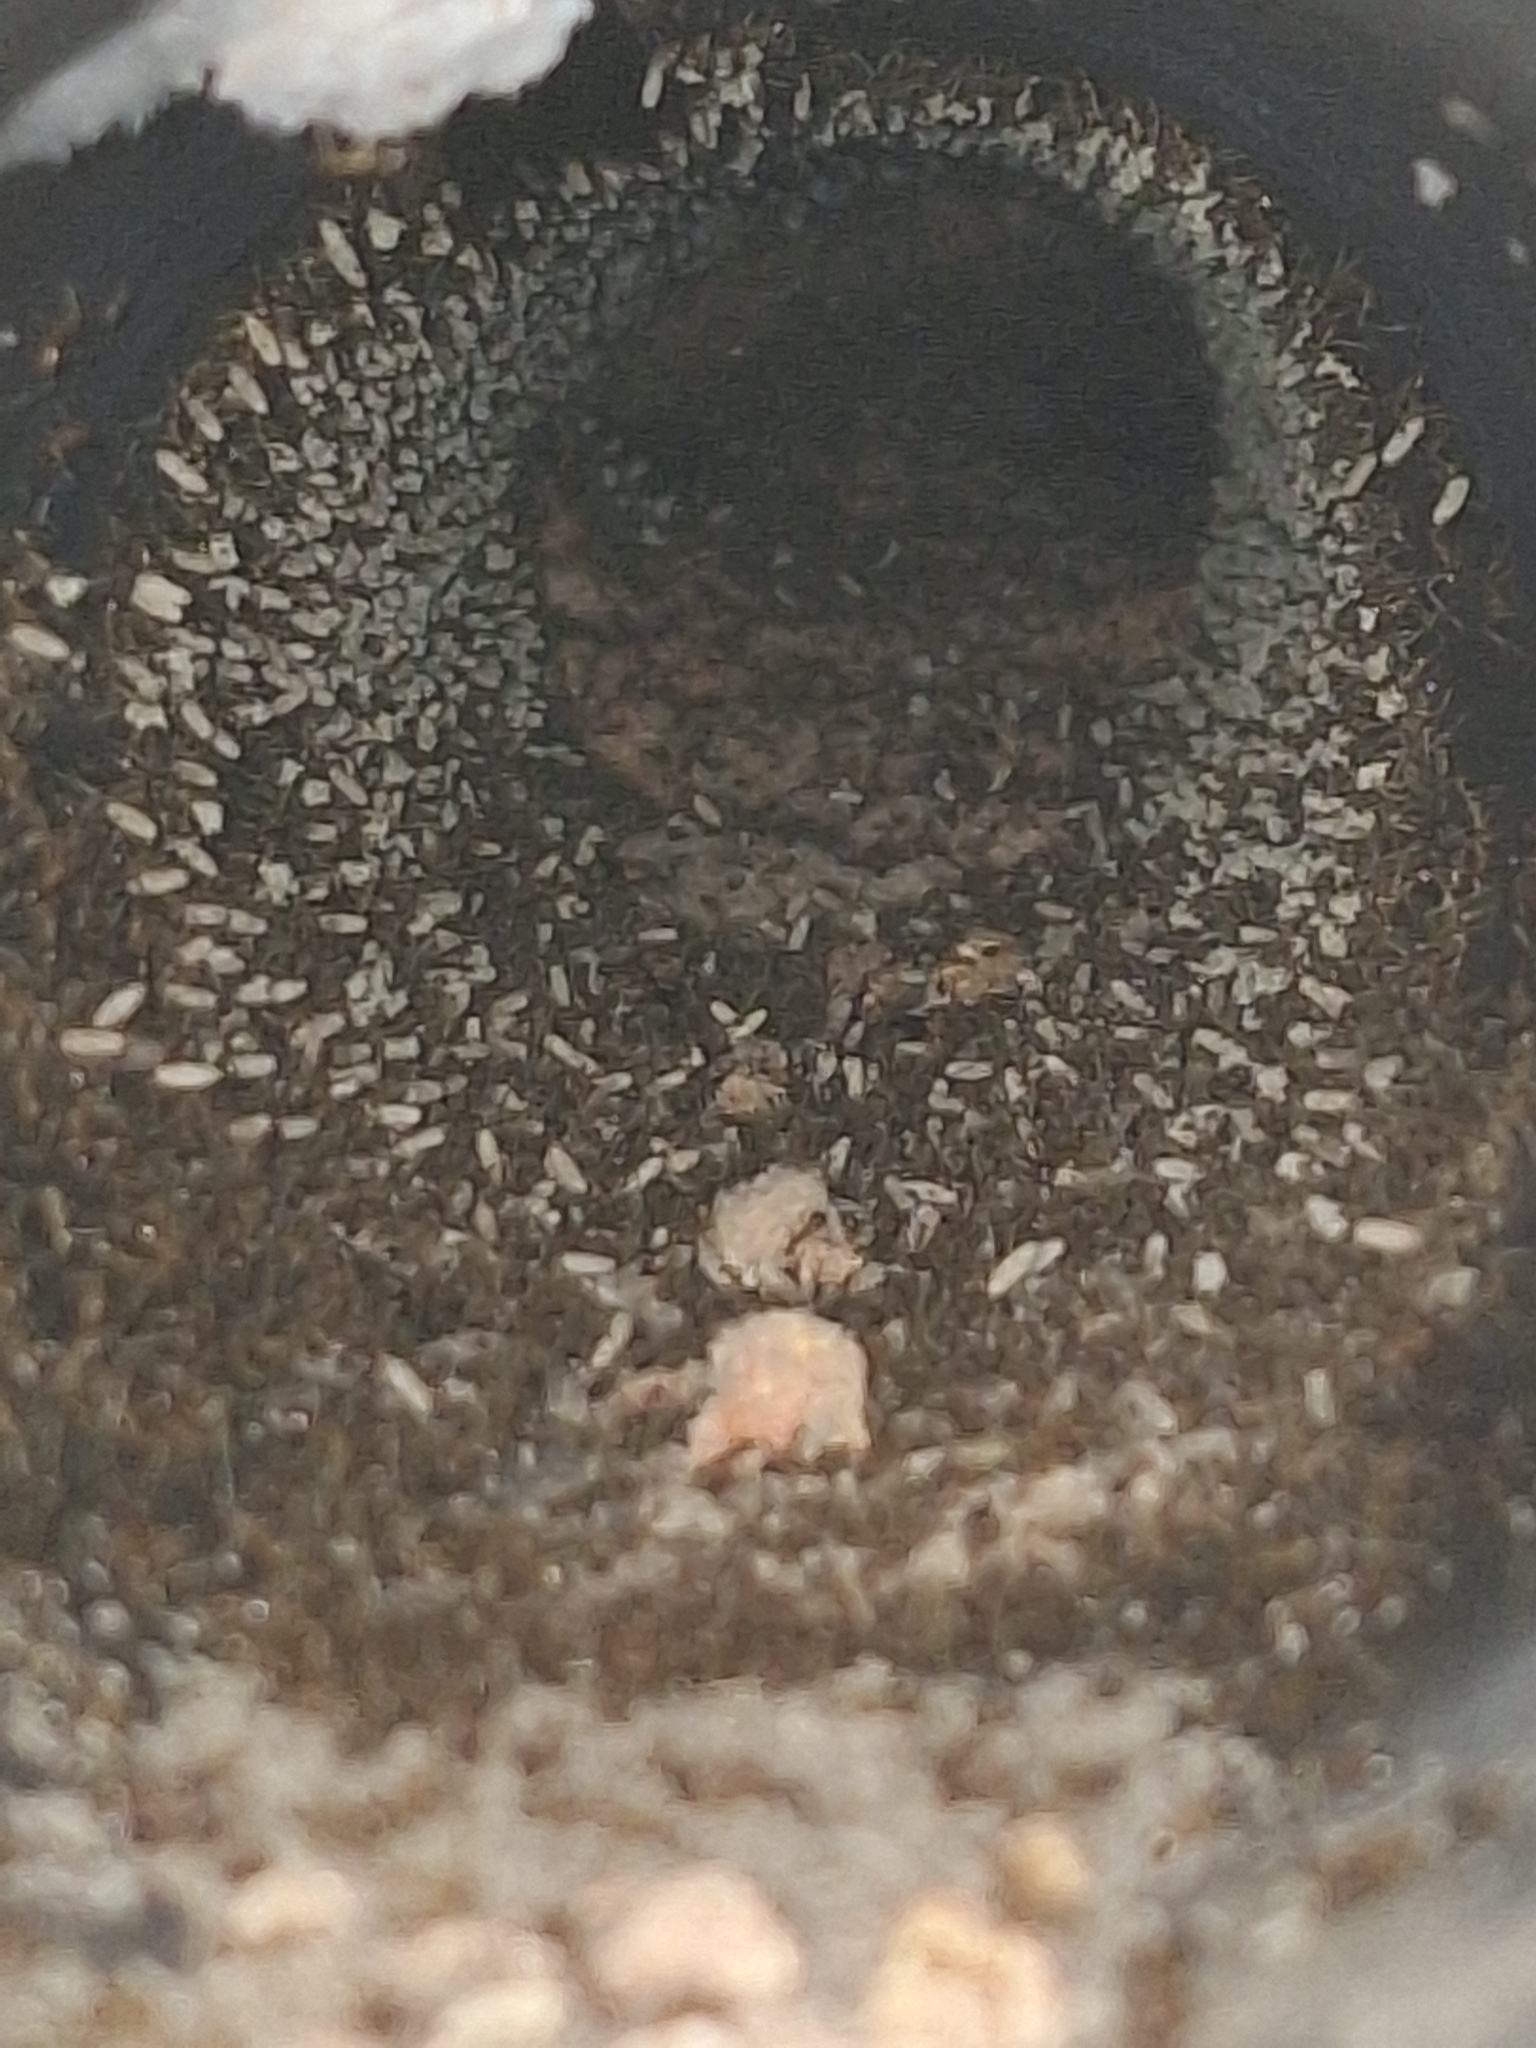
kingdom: Animalia
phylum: Arthropoda
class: Insecta
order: Hymenoptera
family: Formicidae
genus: Anoplolepis
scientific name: Anoplolepis gracilipes
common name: Ant
